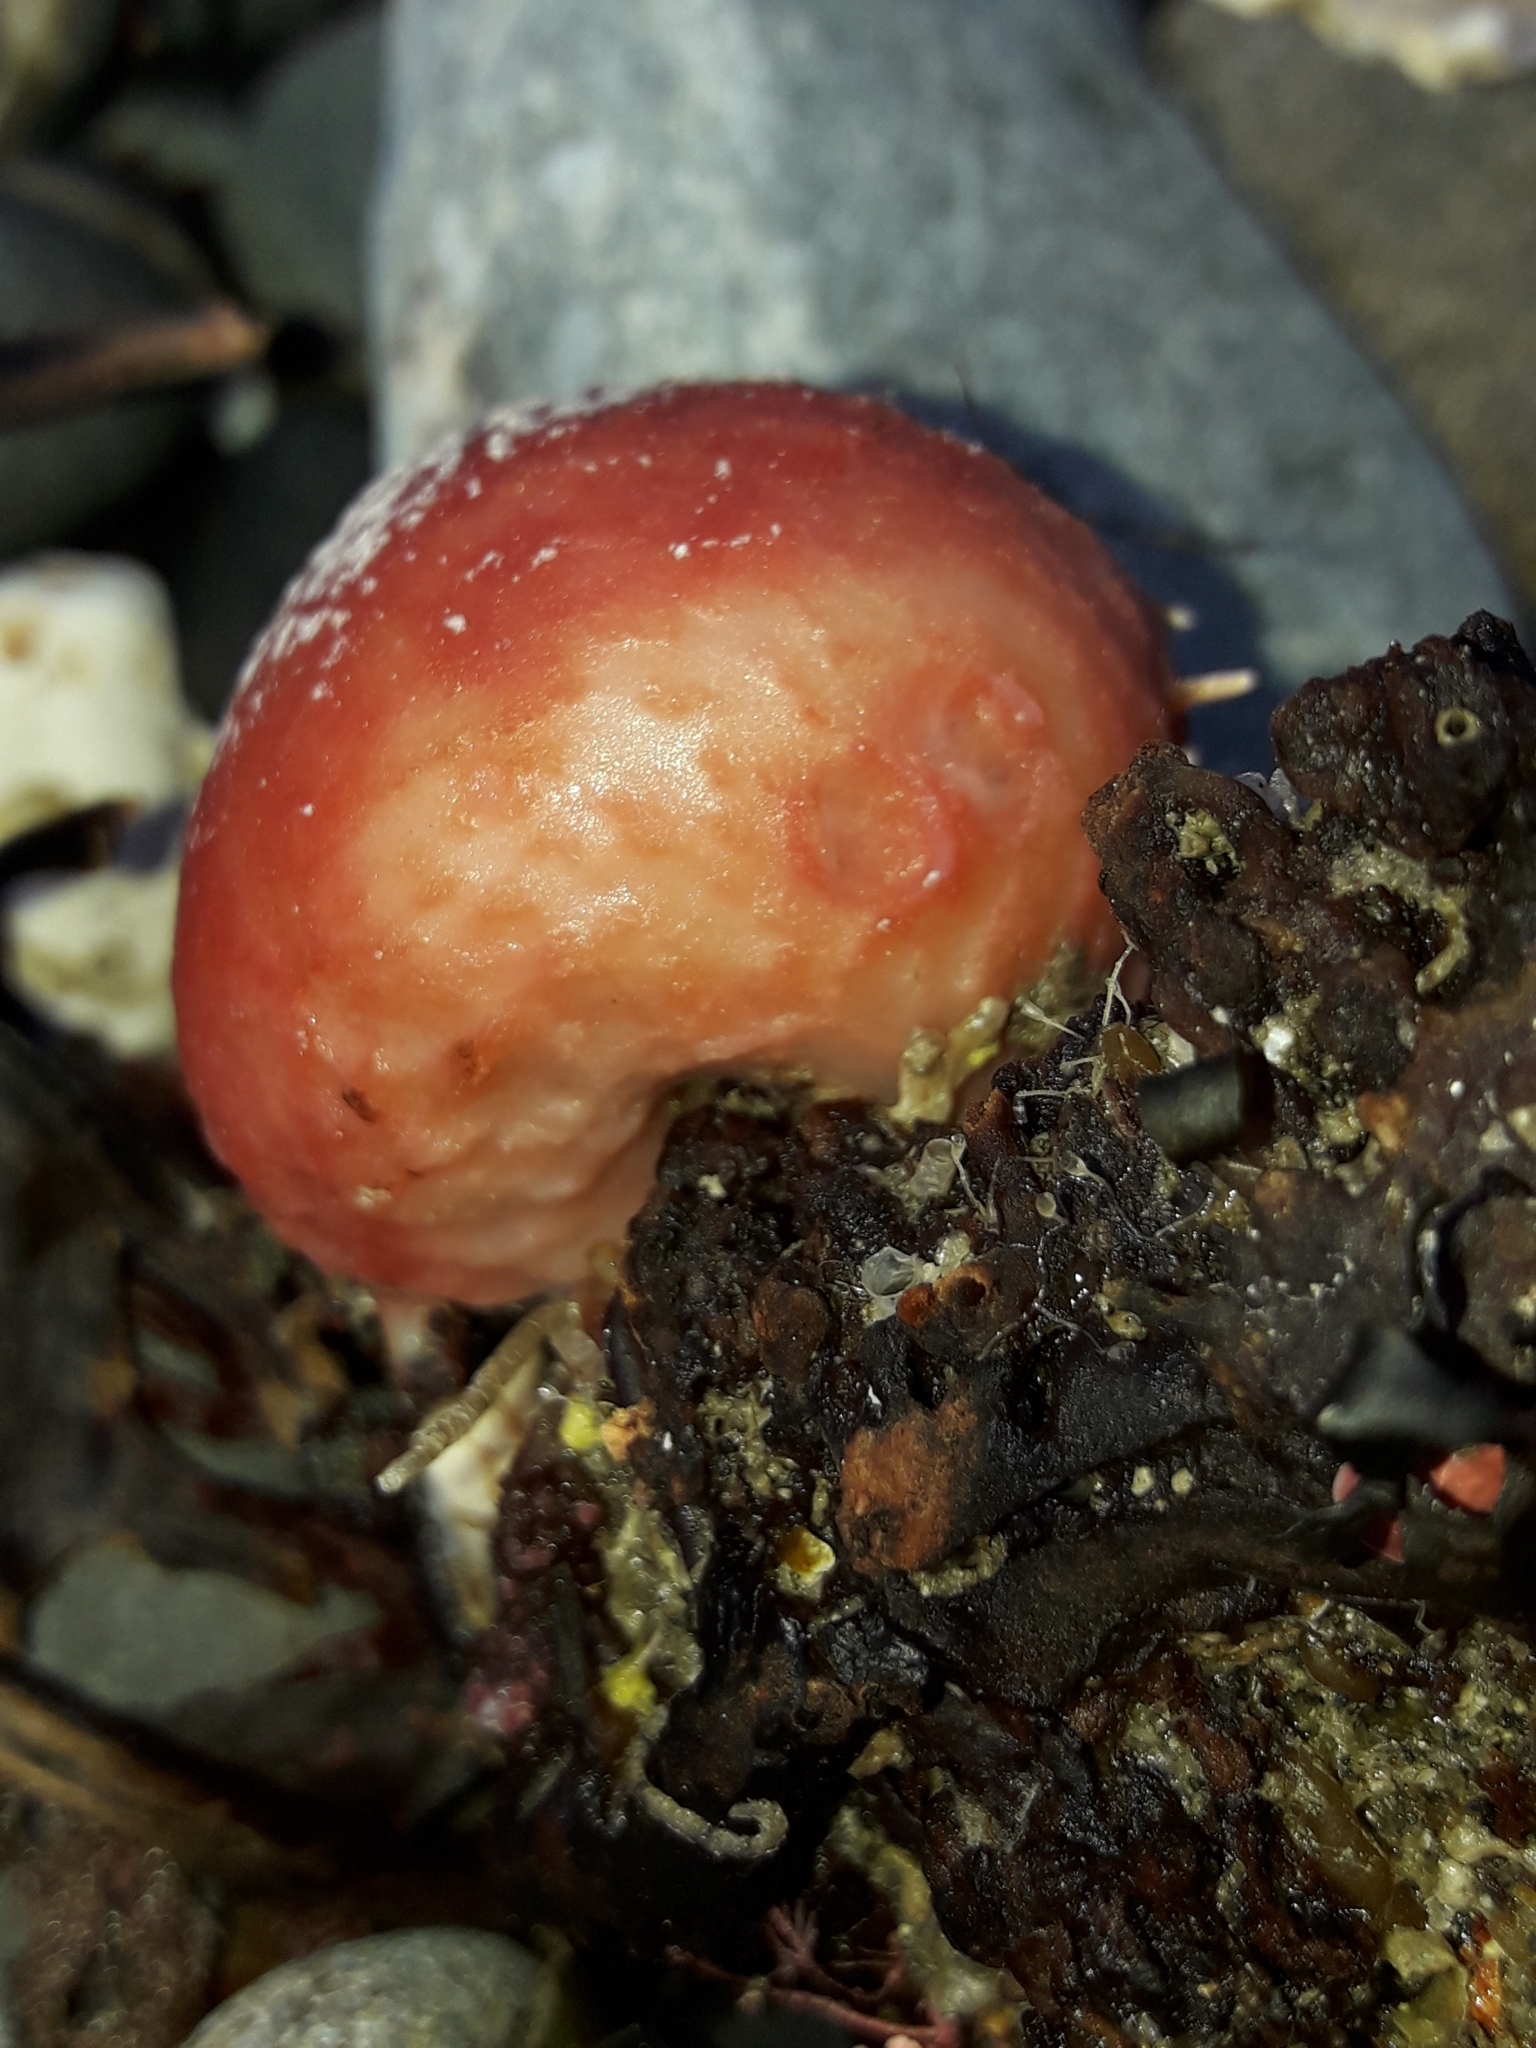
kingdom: Animalia
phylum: Porifera
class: Demospongiae
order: Tethyida
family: Tethyidae
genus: Tethya
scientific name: Tethya bergquistae
